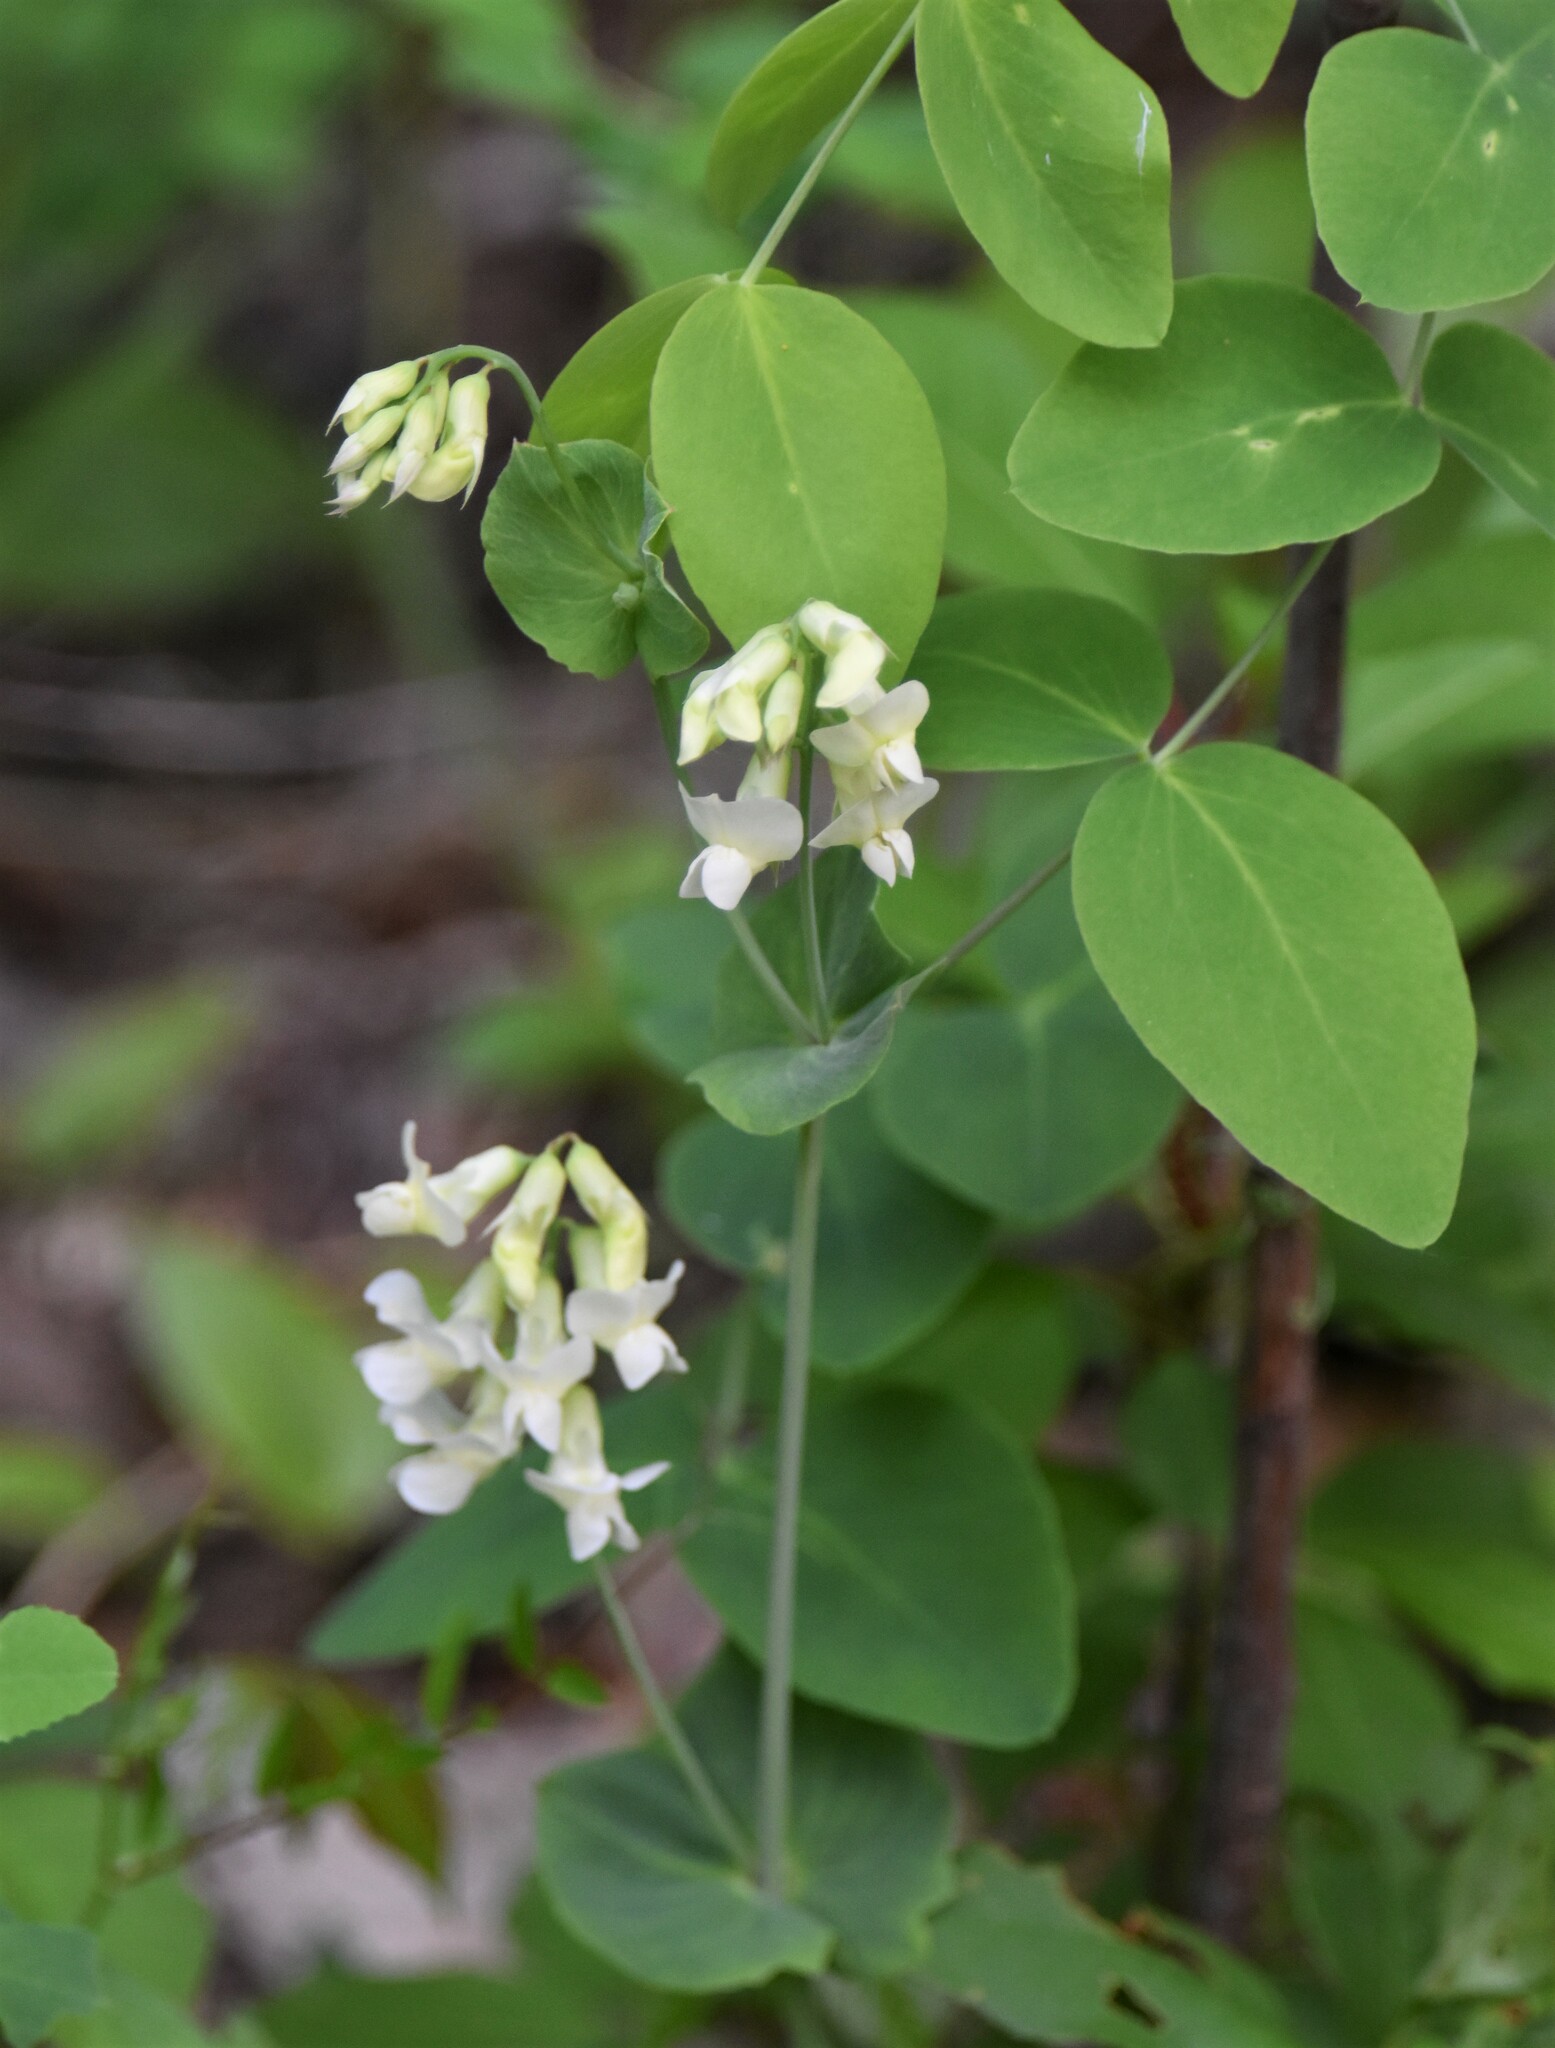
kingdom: Plantae
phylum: Tracheophyta
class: Magnoliopsida
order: Fabales
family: Fabaceae
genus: Lathyrus
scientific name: Lathyrus ochroleucus
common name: Pale vetchling
